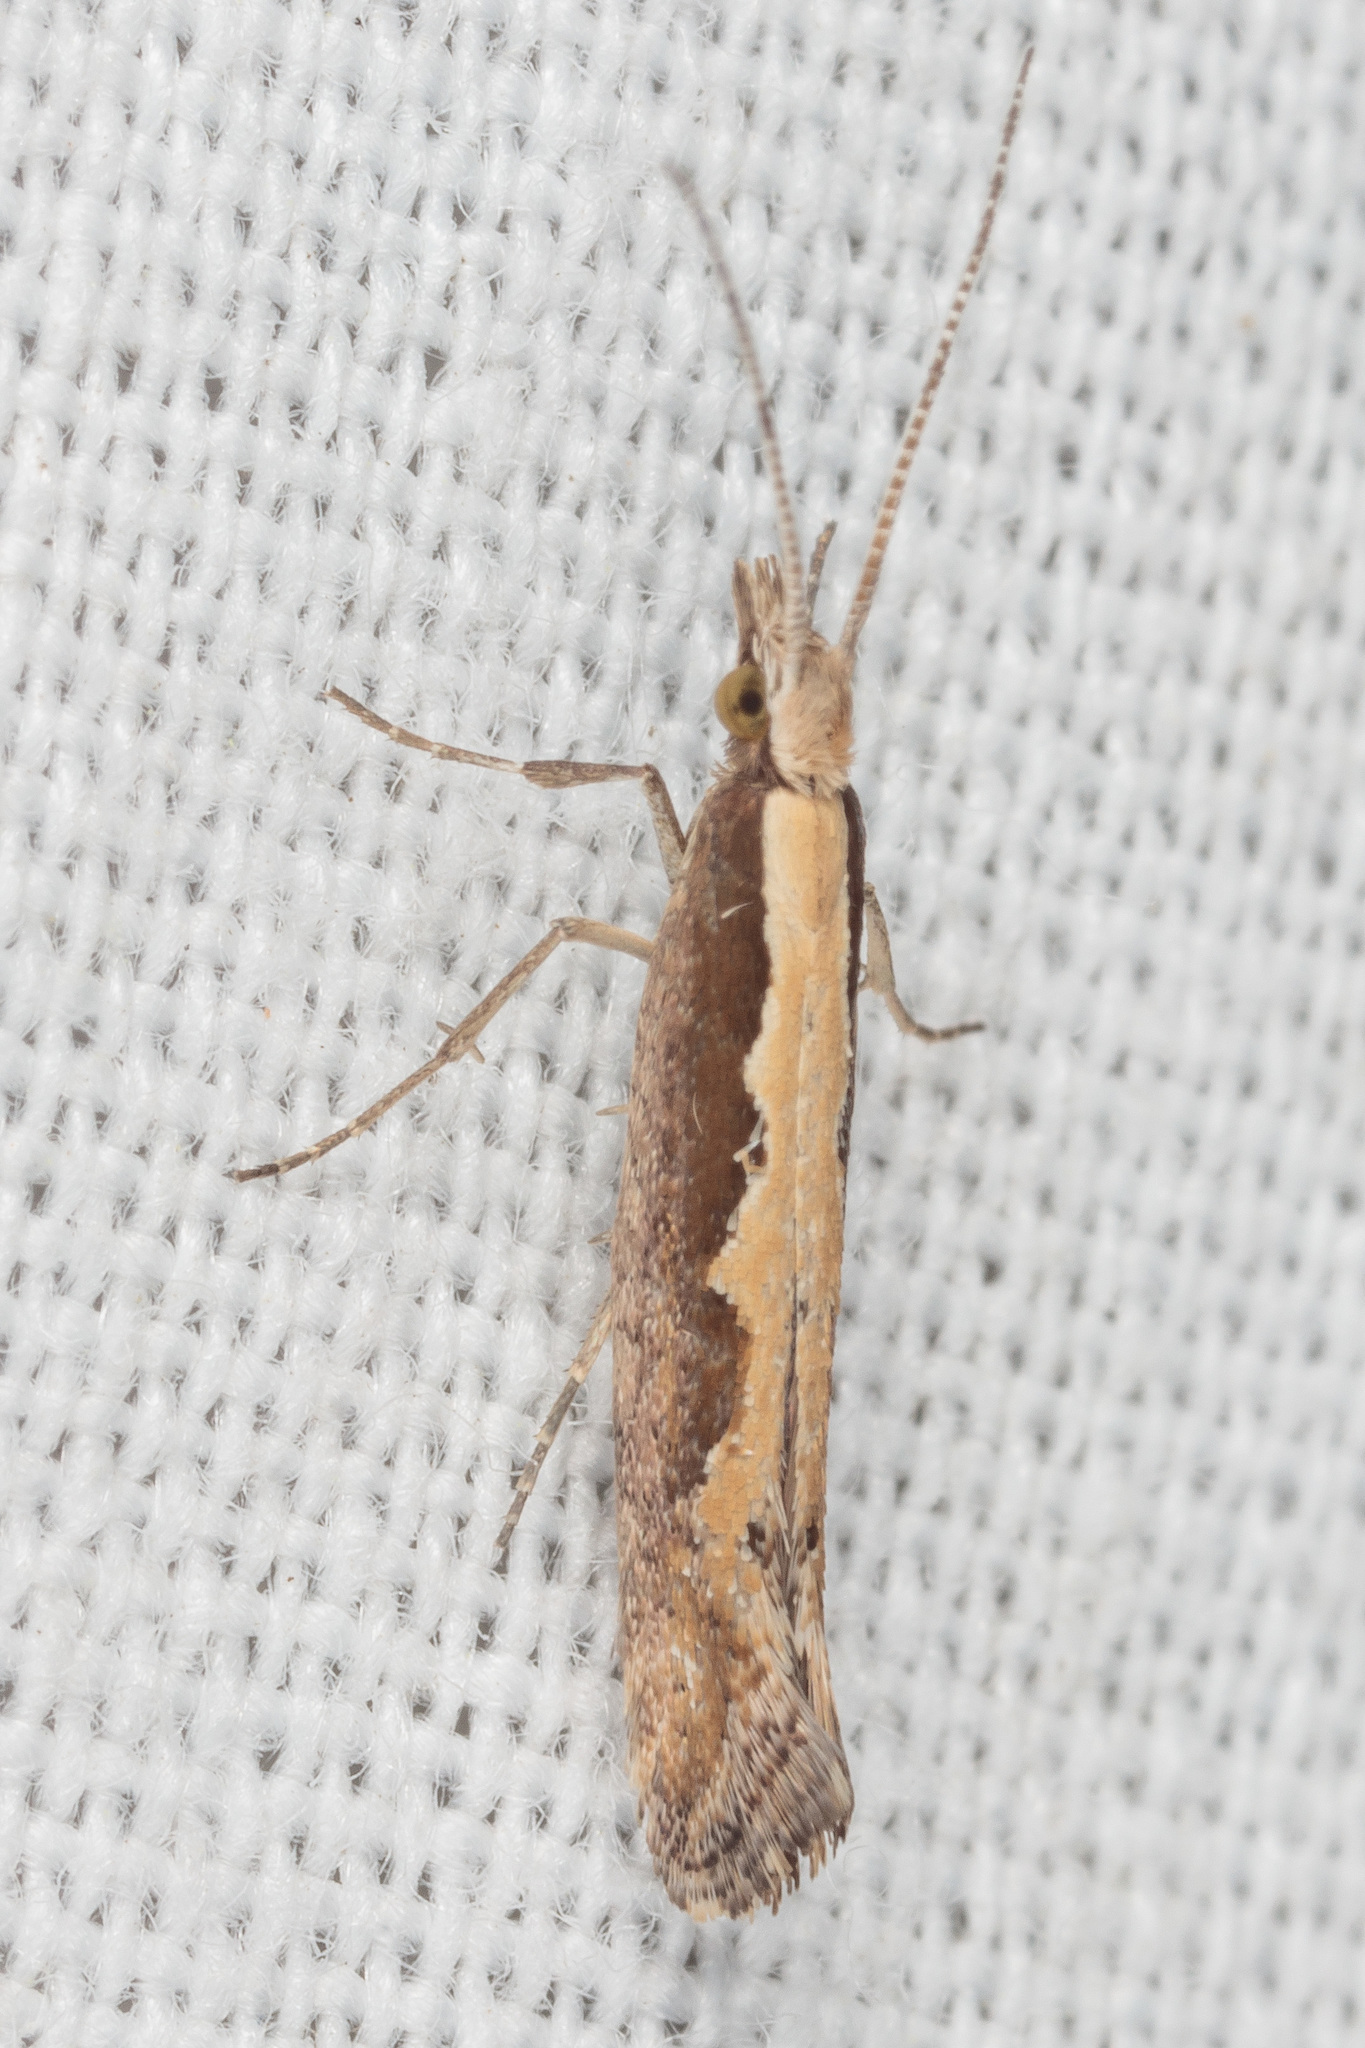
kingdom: Animalia
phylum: Arthropoda
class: Insecta
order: Lepidoptera
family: Plutellidae
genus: Plutella
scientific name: Plutella xylostella
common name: Diamond-back moth
